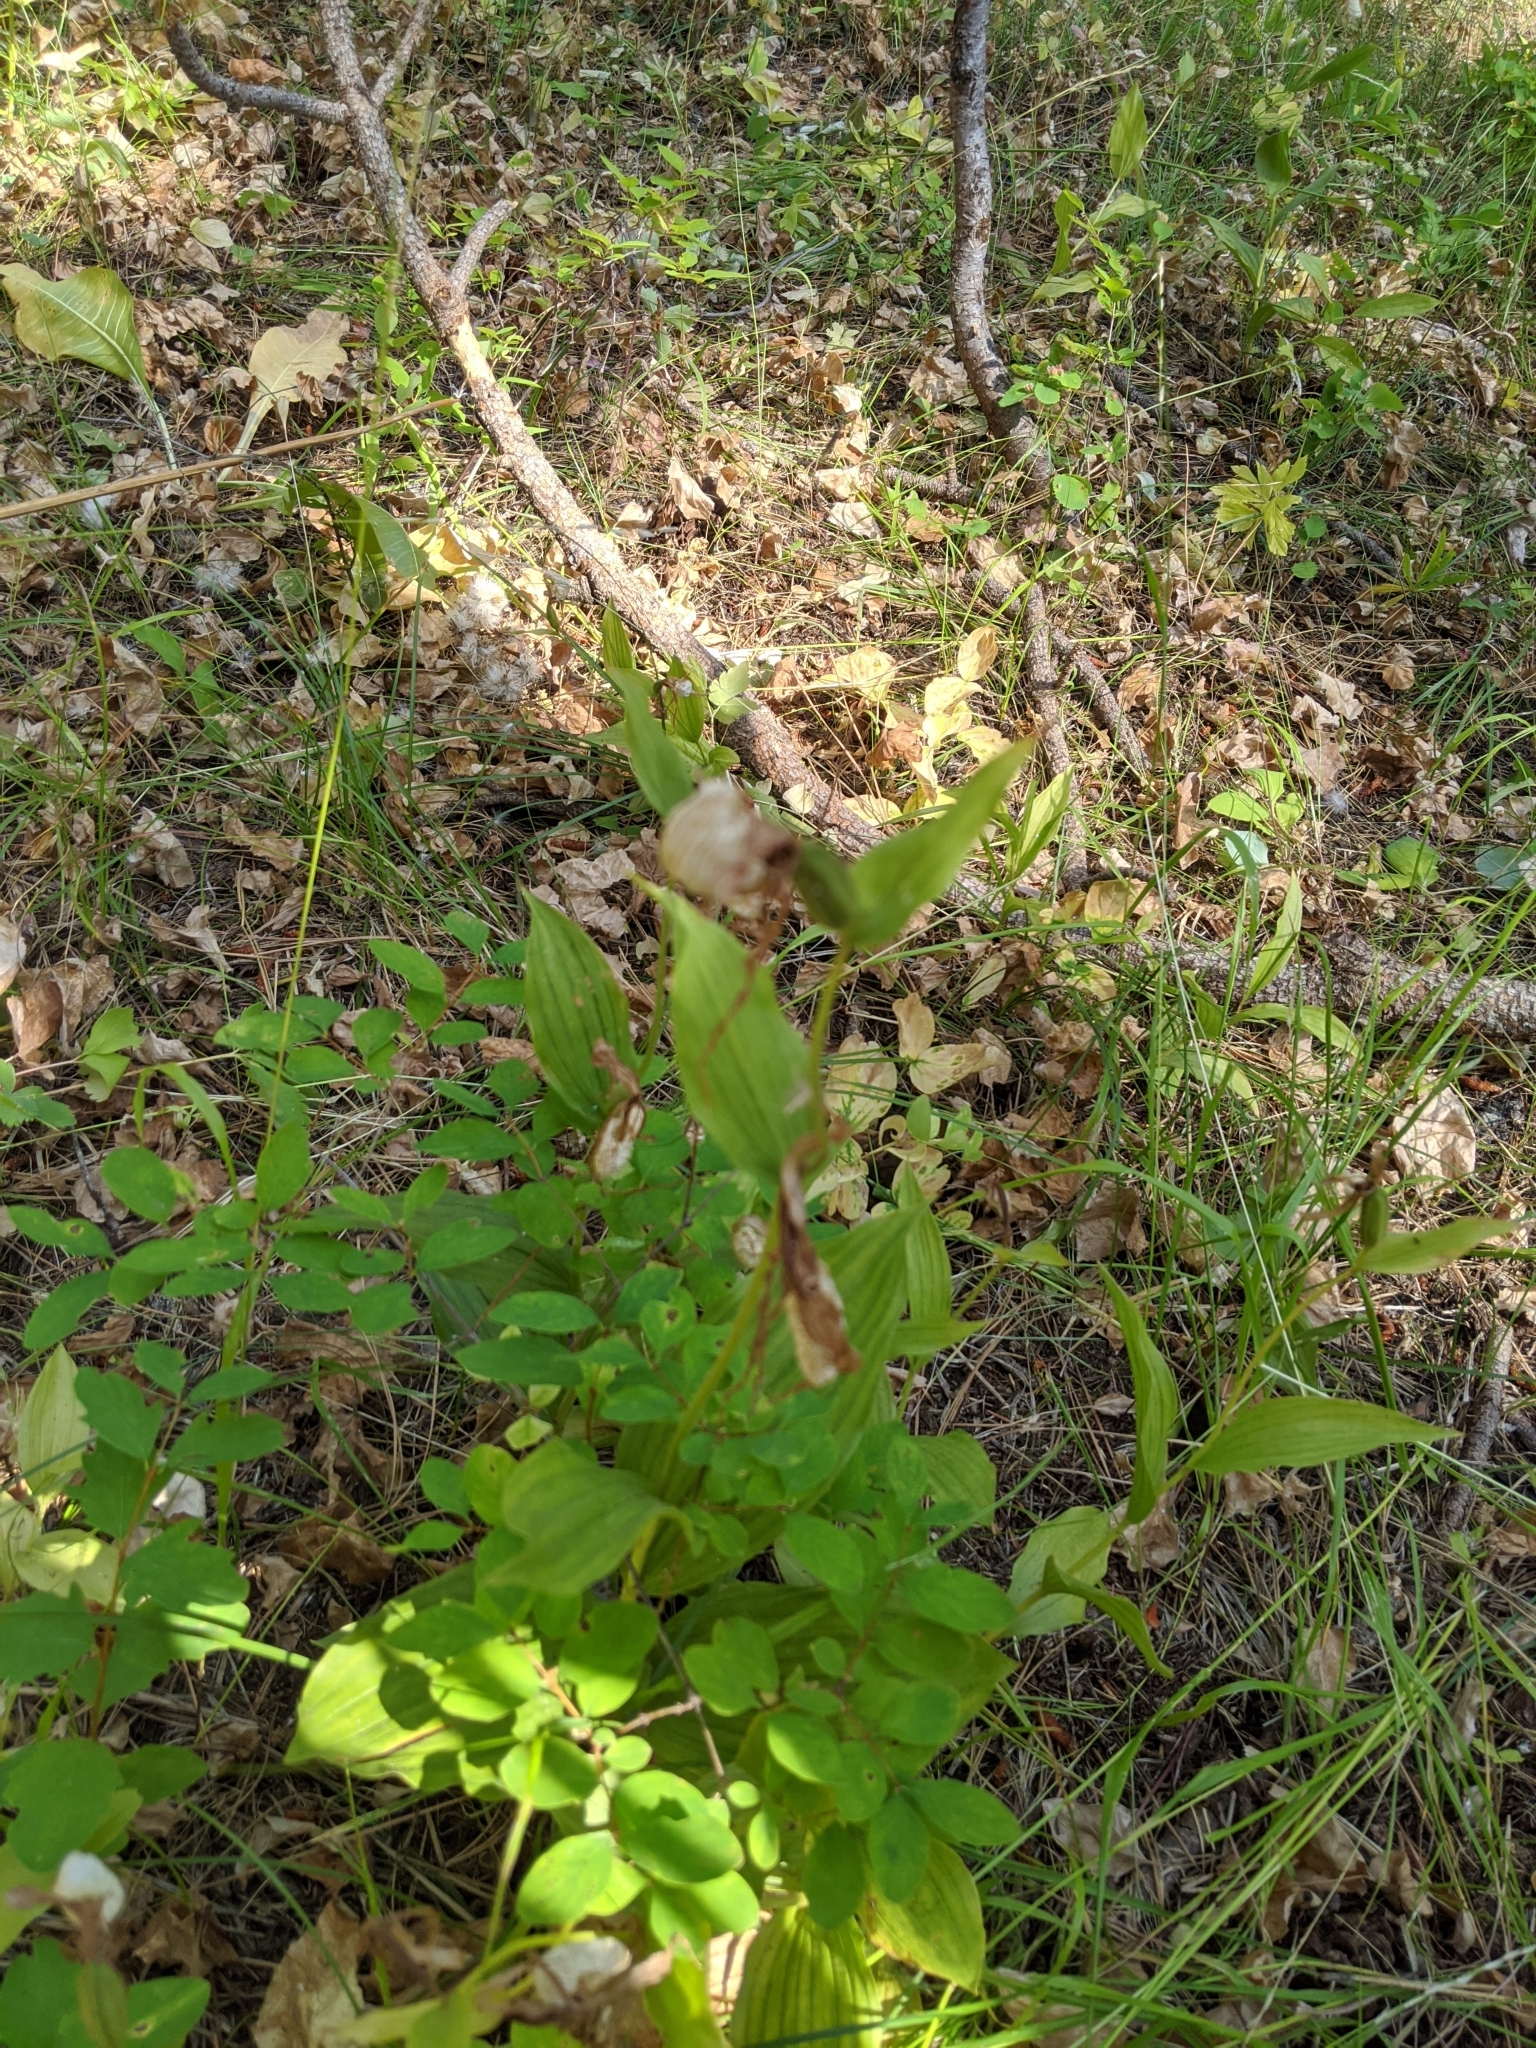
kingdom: Plantae
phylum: Tracheophyta
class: Liliopsida
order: Asparagales
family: Orchidaceae
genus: Cypripedium
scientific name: Cypripedium montanum
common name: Mountain lady's-slipper
